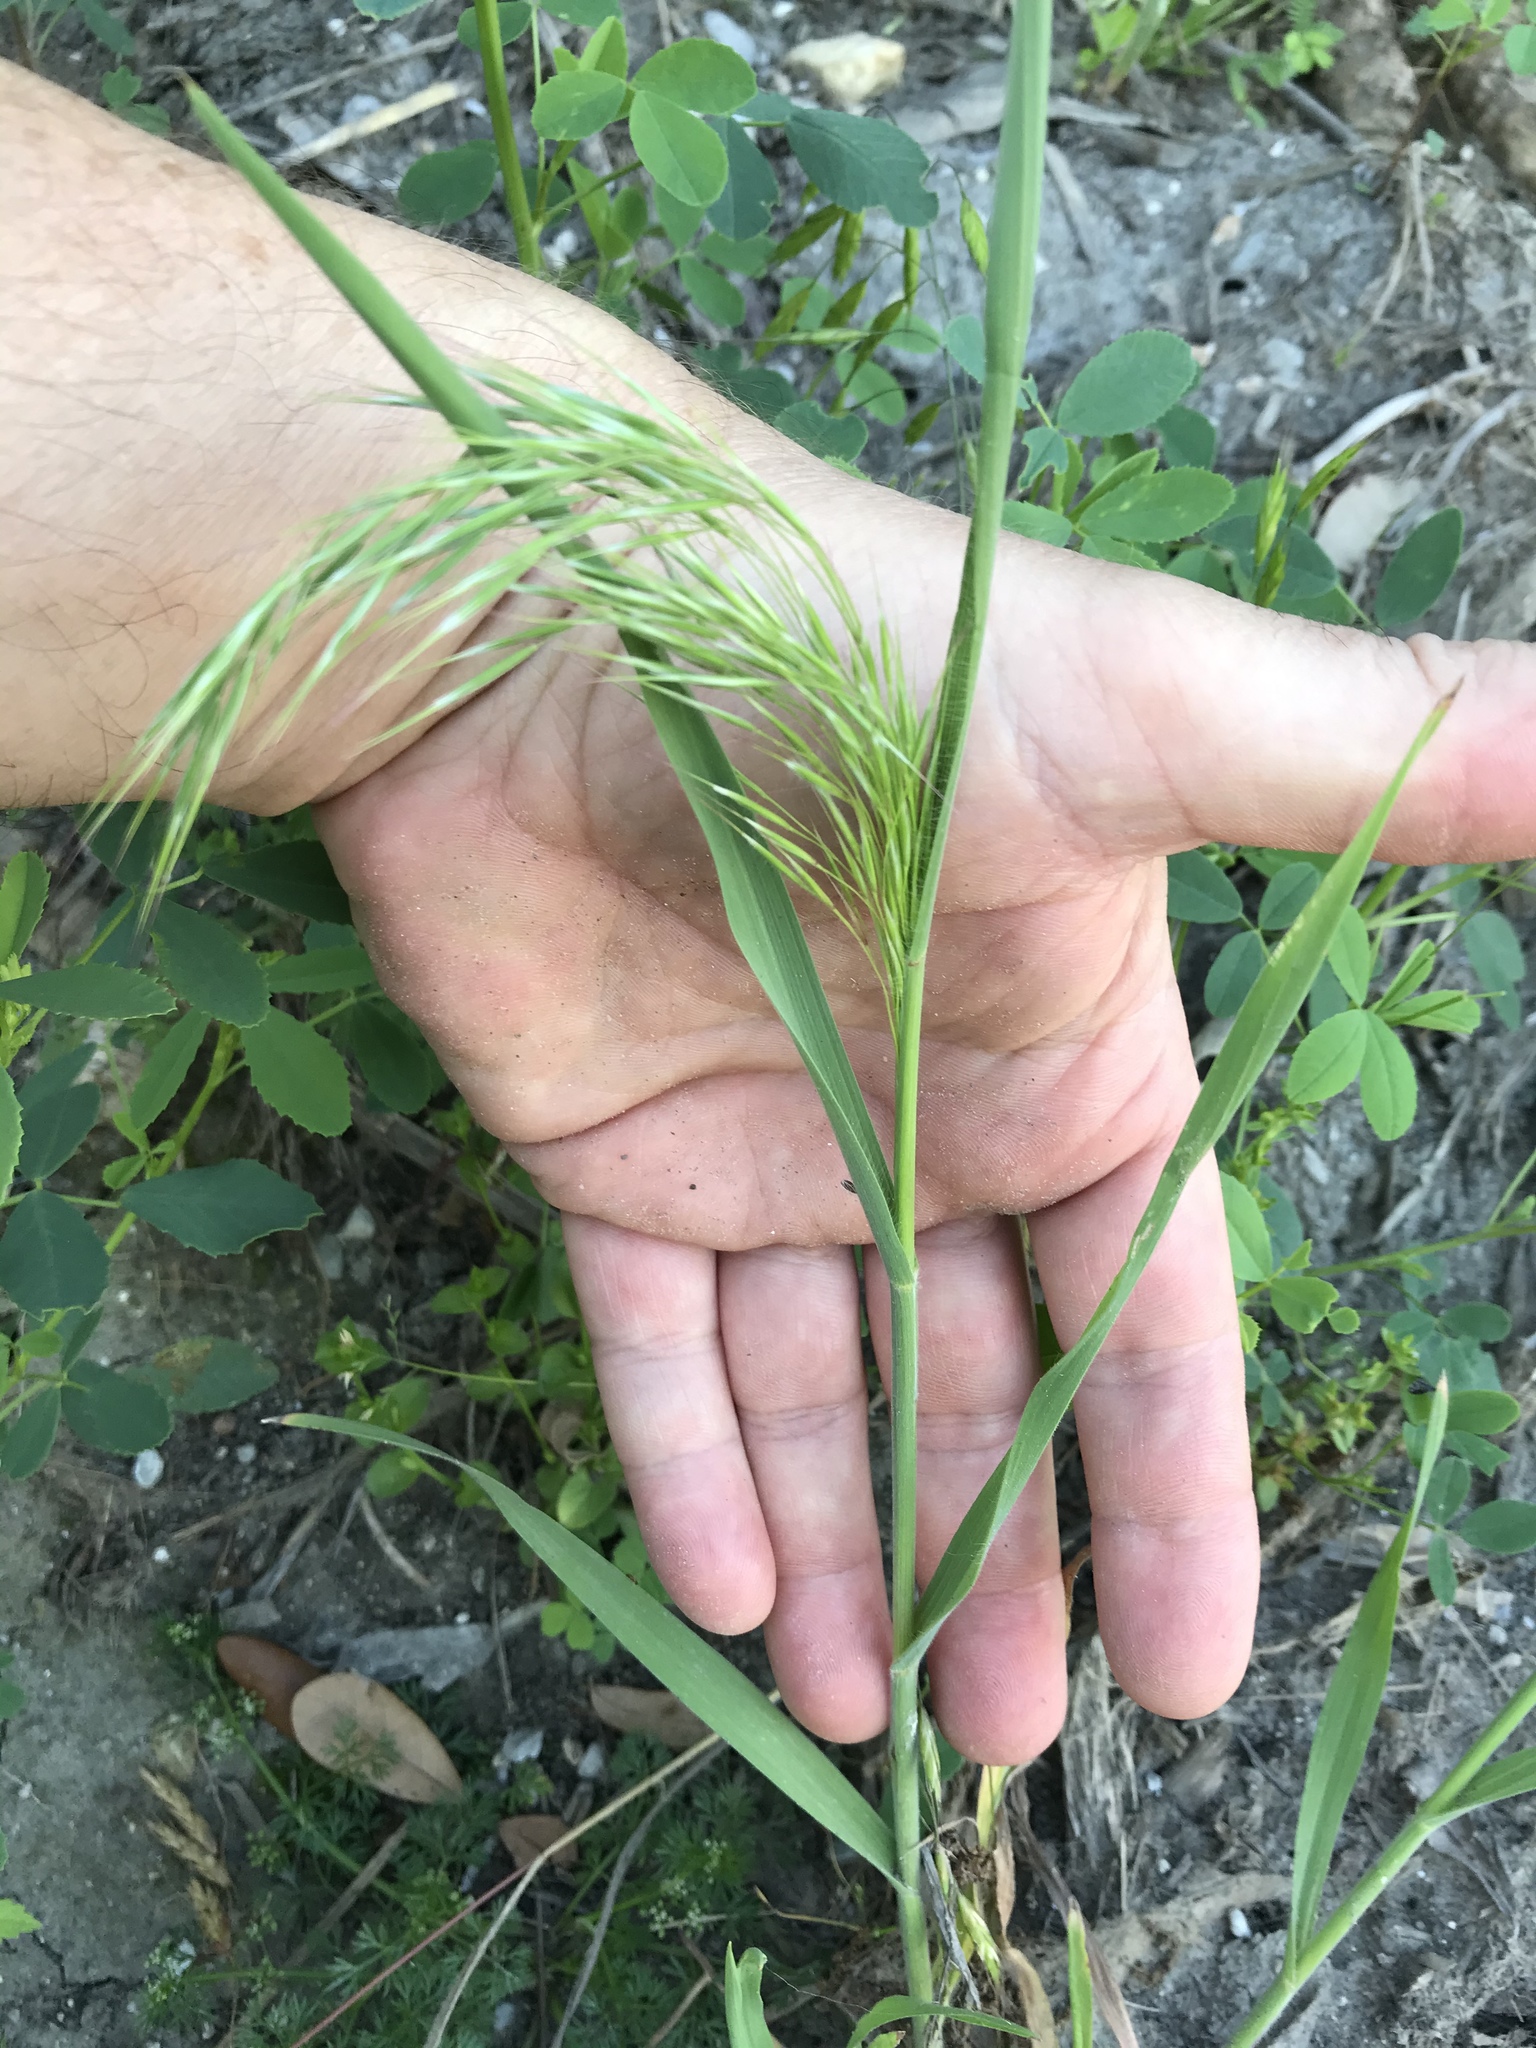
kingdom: Plantae
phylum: Tracheophyta
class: Liliopsida
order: Poales
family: Poaceae
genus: Bromus
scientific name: Bromus tectorum
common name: Cheatgrass
